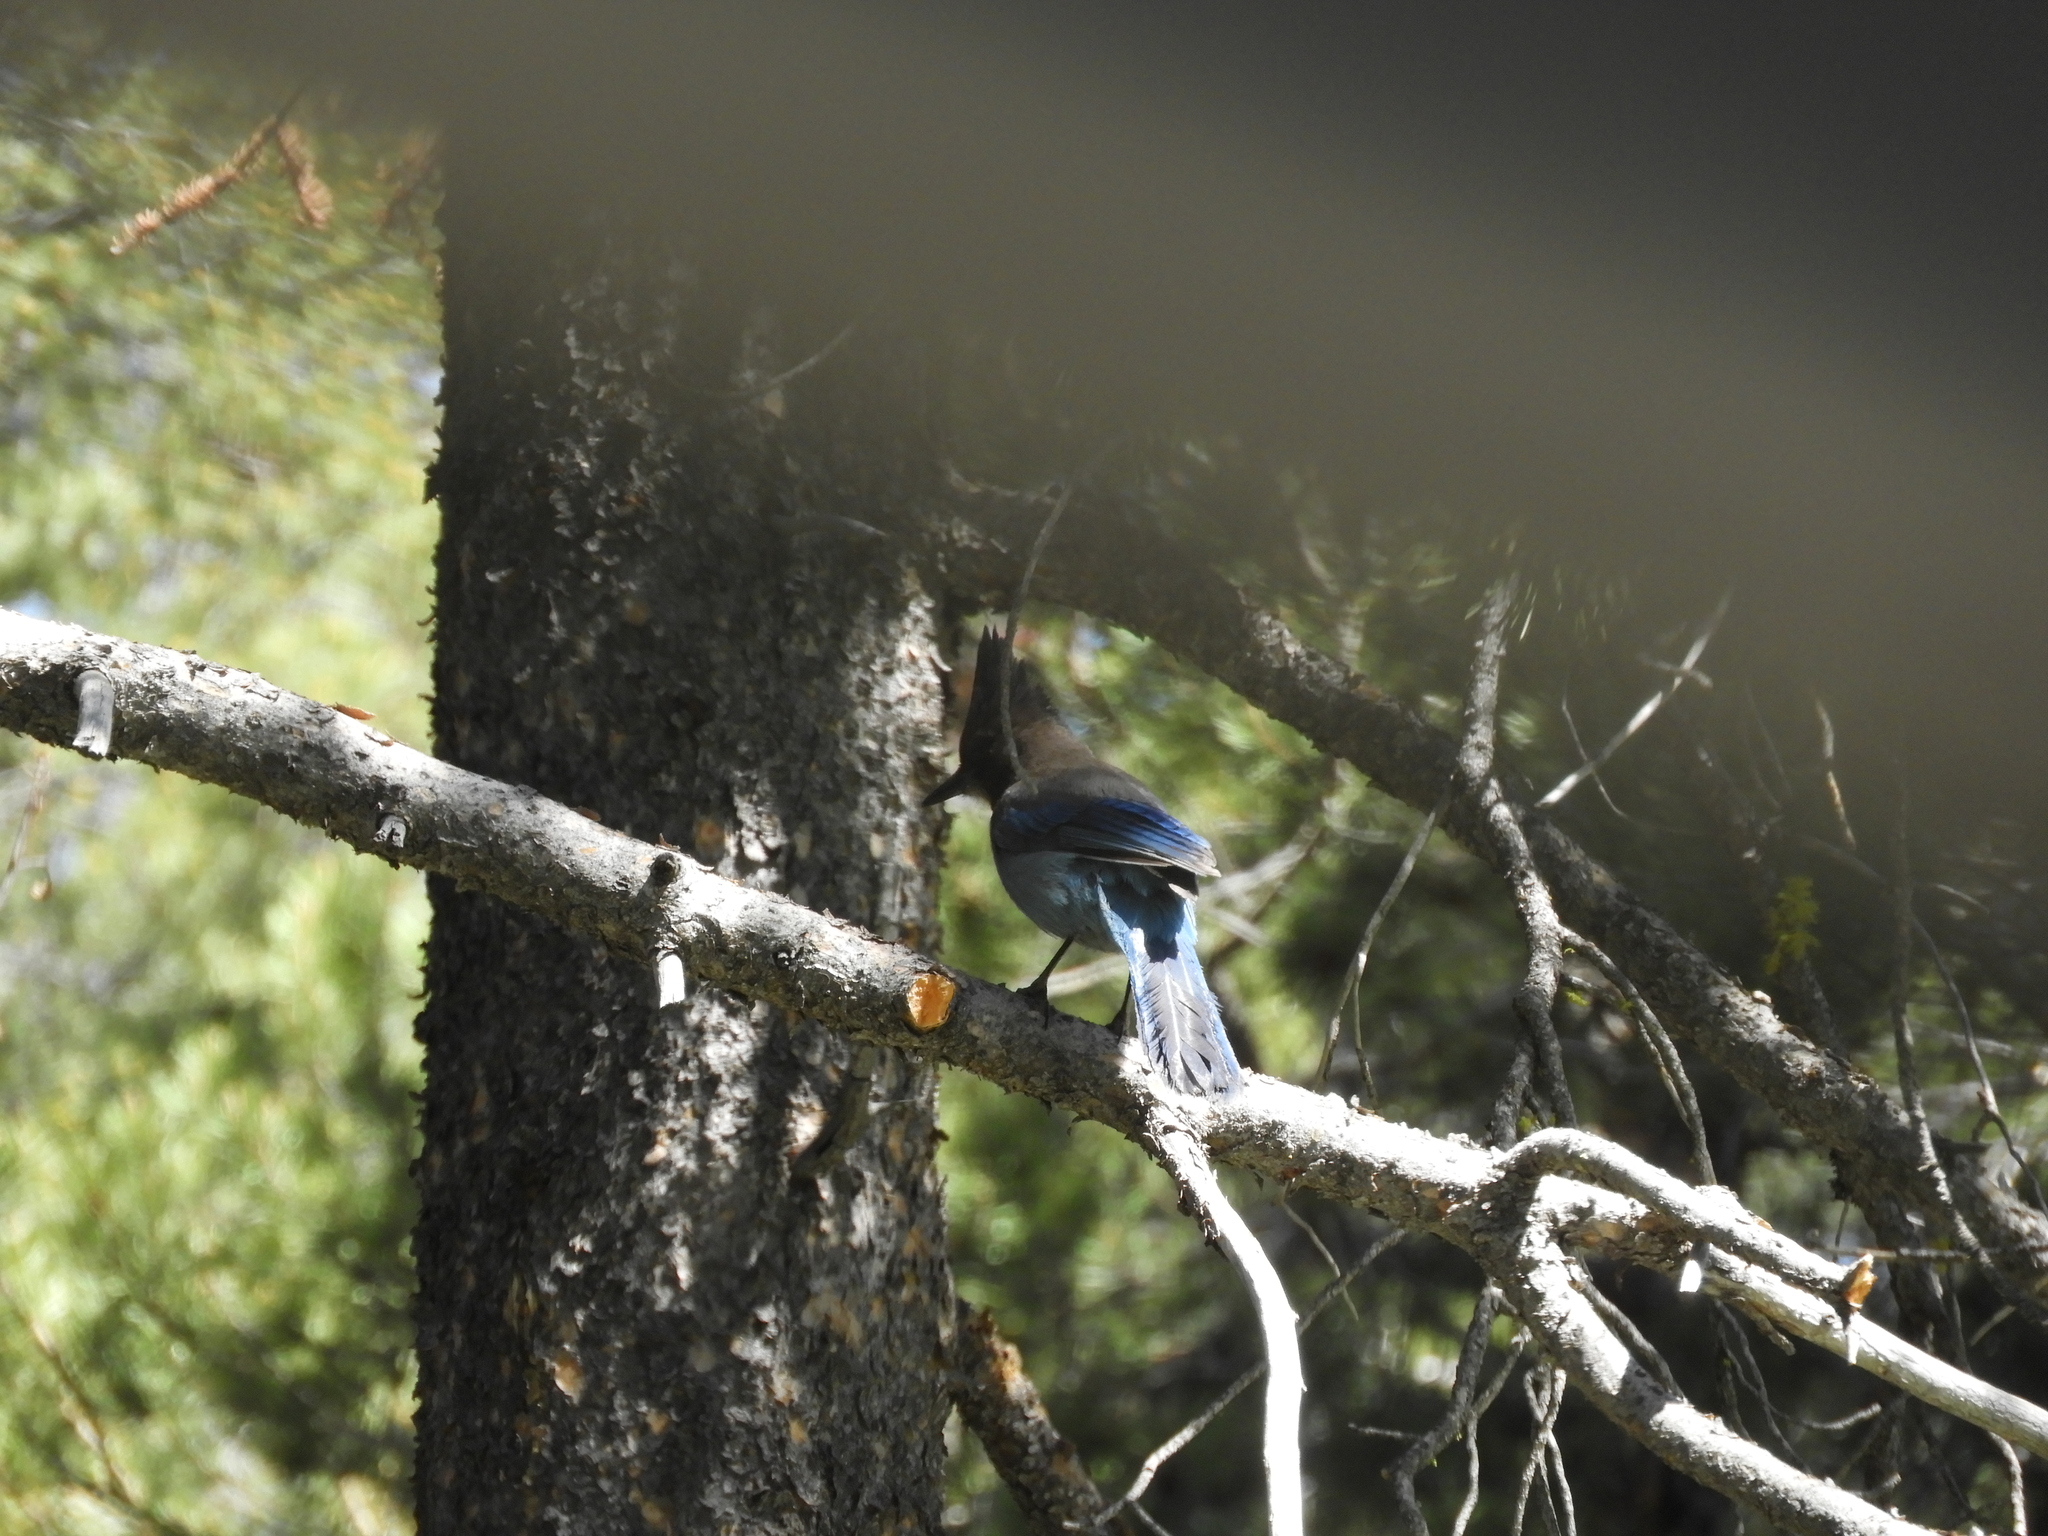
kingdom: Animalia
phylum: Chordata
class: Aves
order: Passeriformes
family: Corvidae
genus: Cyanocitta
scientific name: Cyanocitta stelleri
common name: Steller's jay
